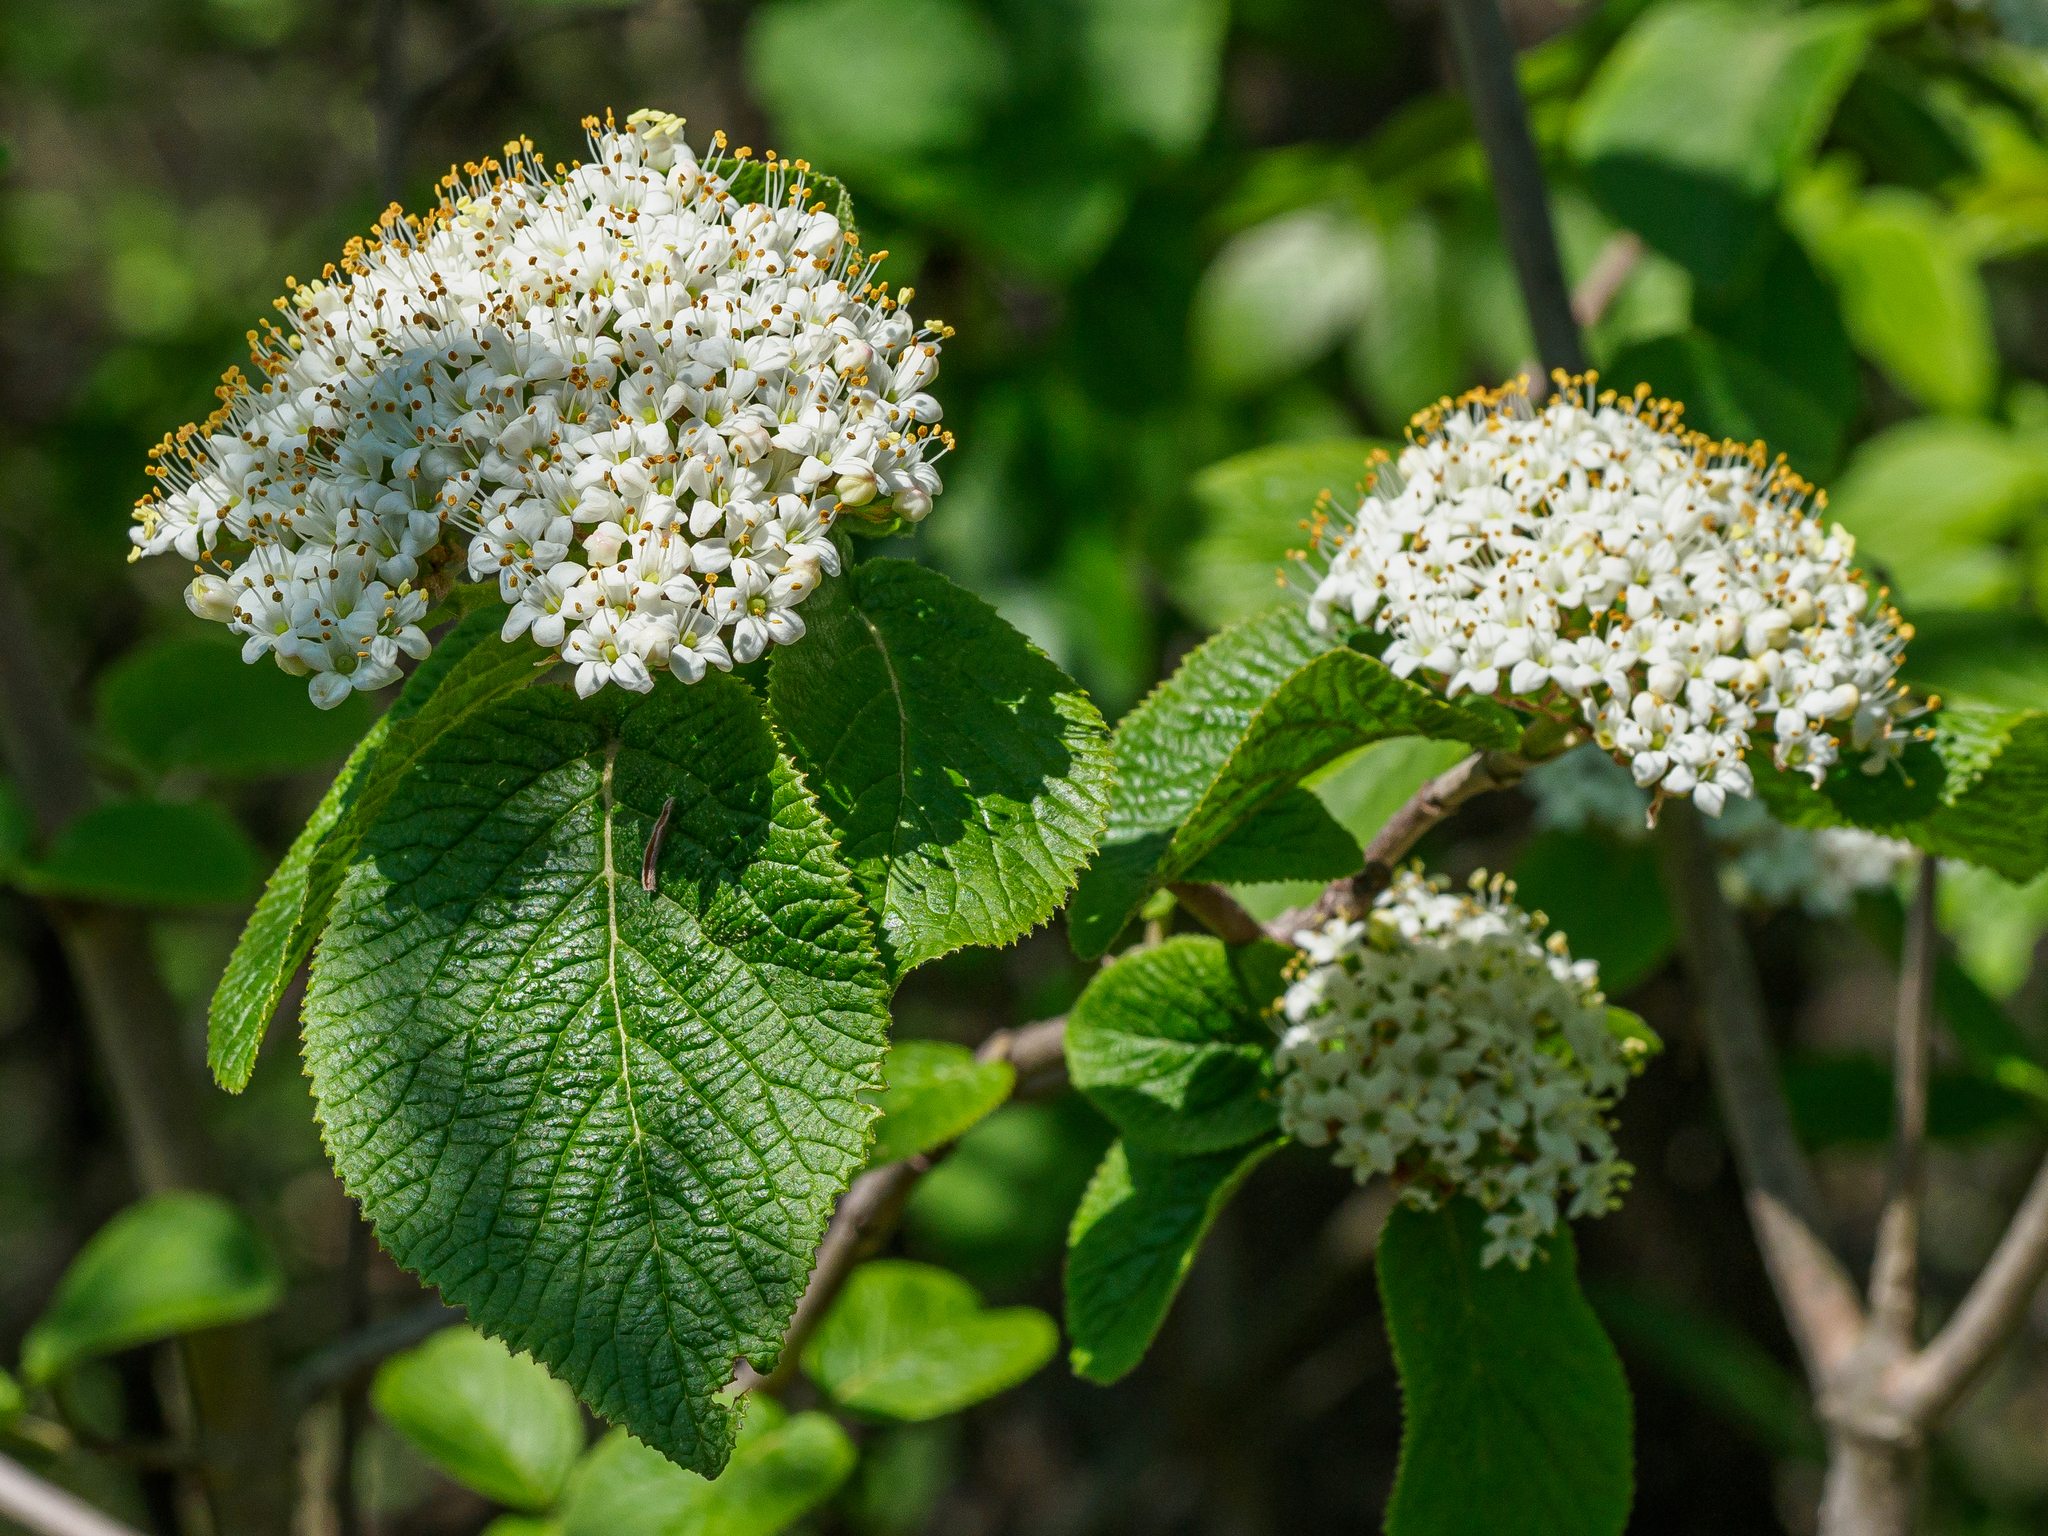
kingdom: Plantae
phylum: Tracheophyta
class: Magnoliopsida
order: Dipsacales
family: Viburnaceae
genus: Viburnum
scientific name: Viburnum lantana
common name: Wayfaring tree
